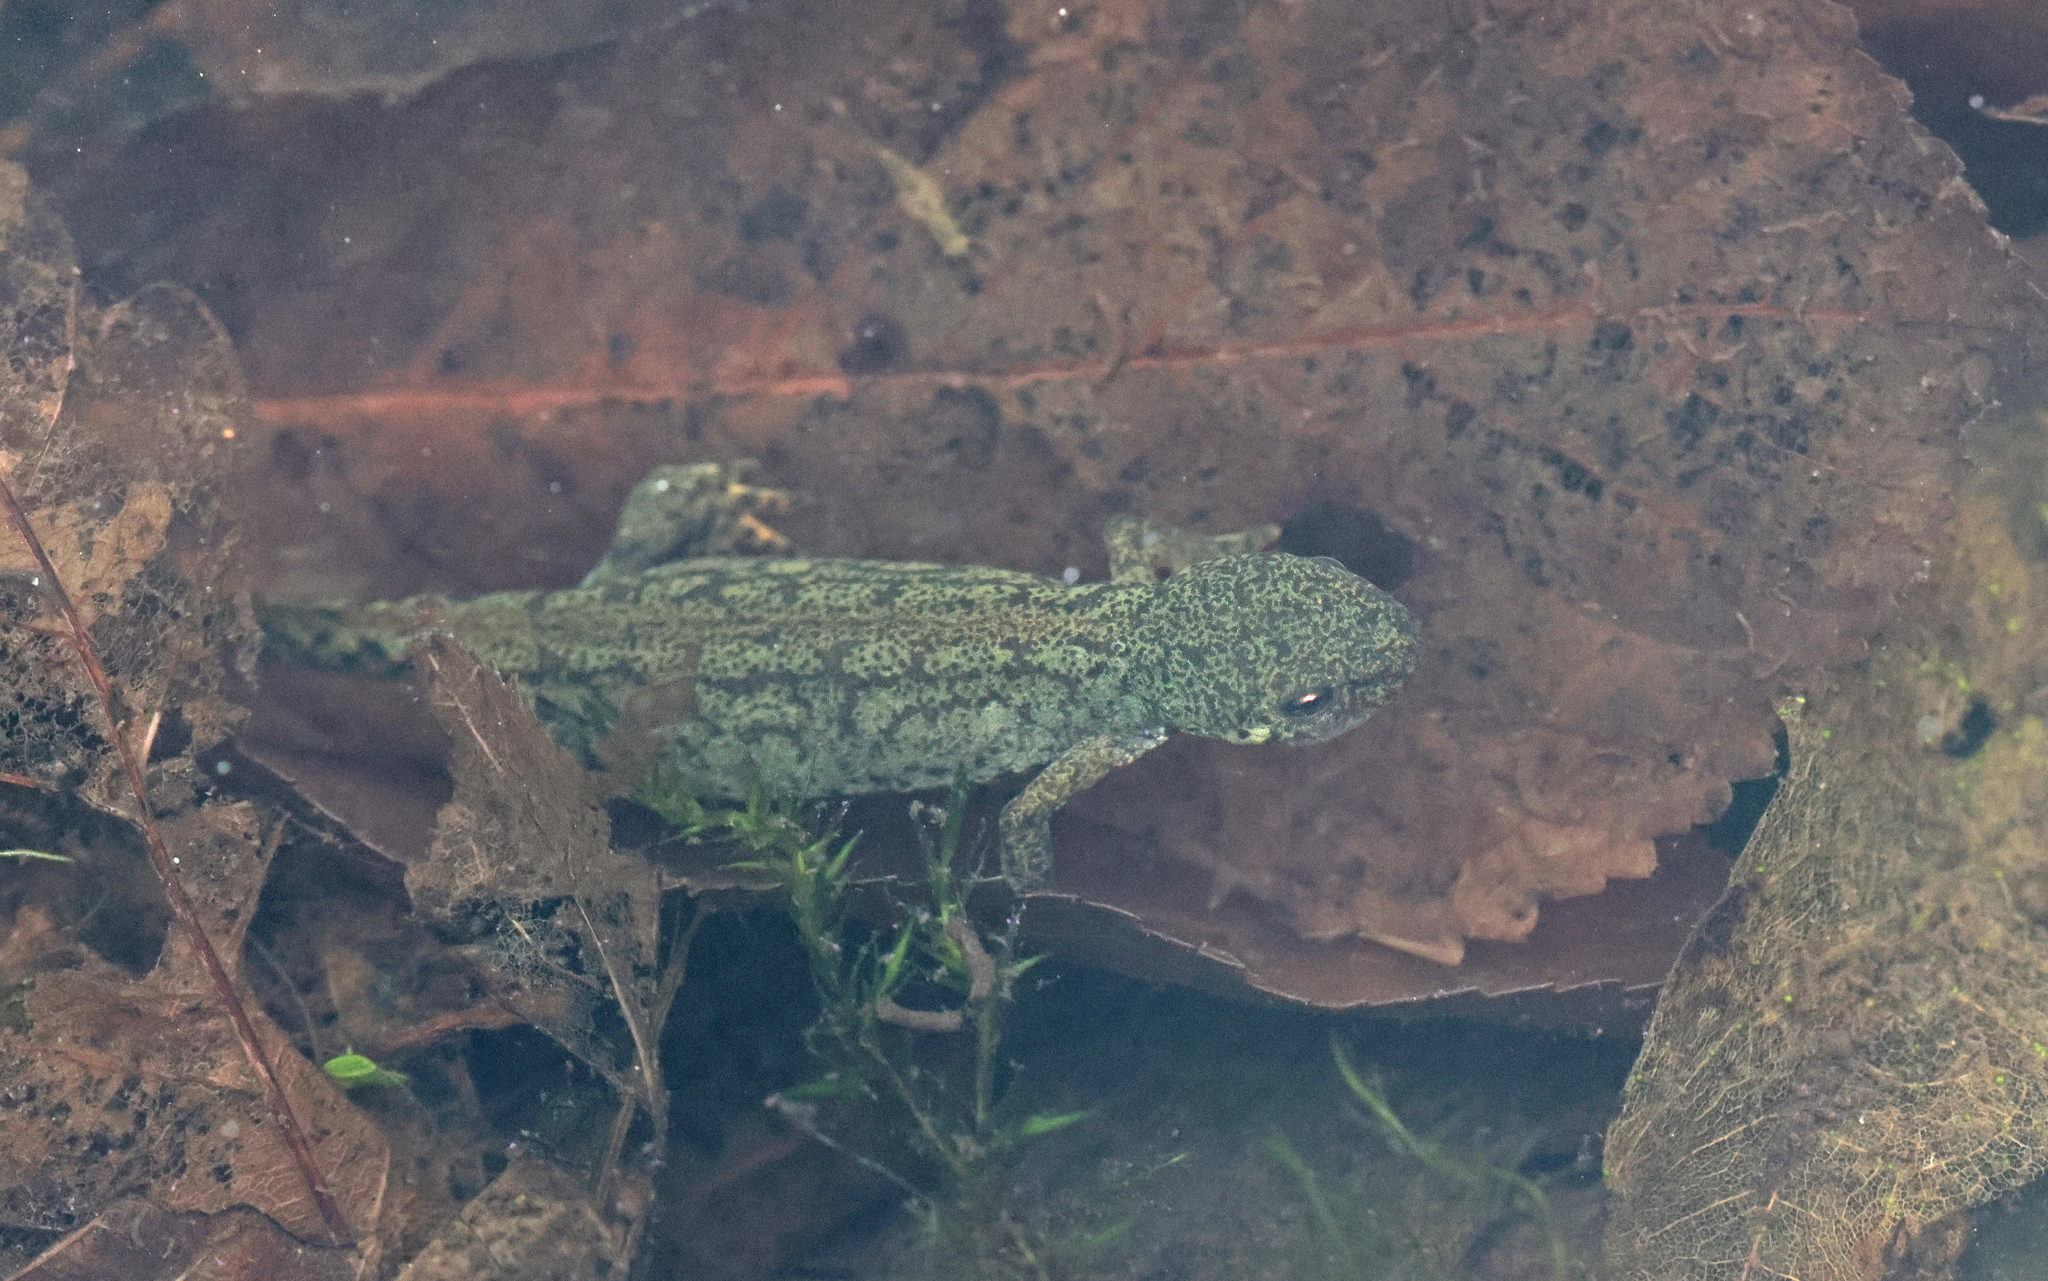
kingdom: Animalia
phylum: Chordata
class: Amphibia
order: Caudata
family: Salamandridae
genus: Ichthyosaura
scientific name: Ichthyosaura alpestris
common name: Alpine newt
